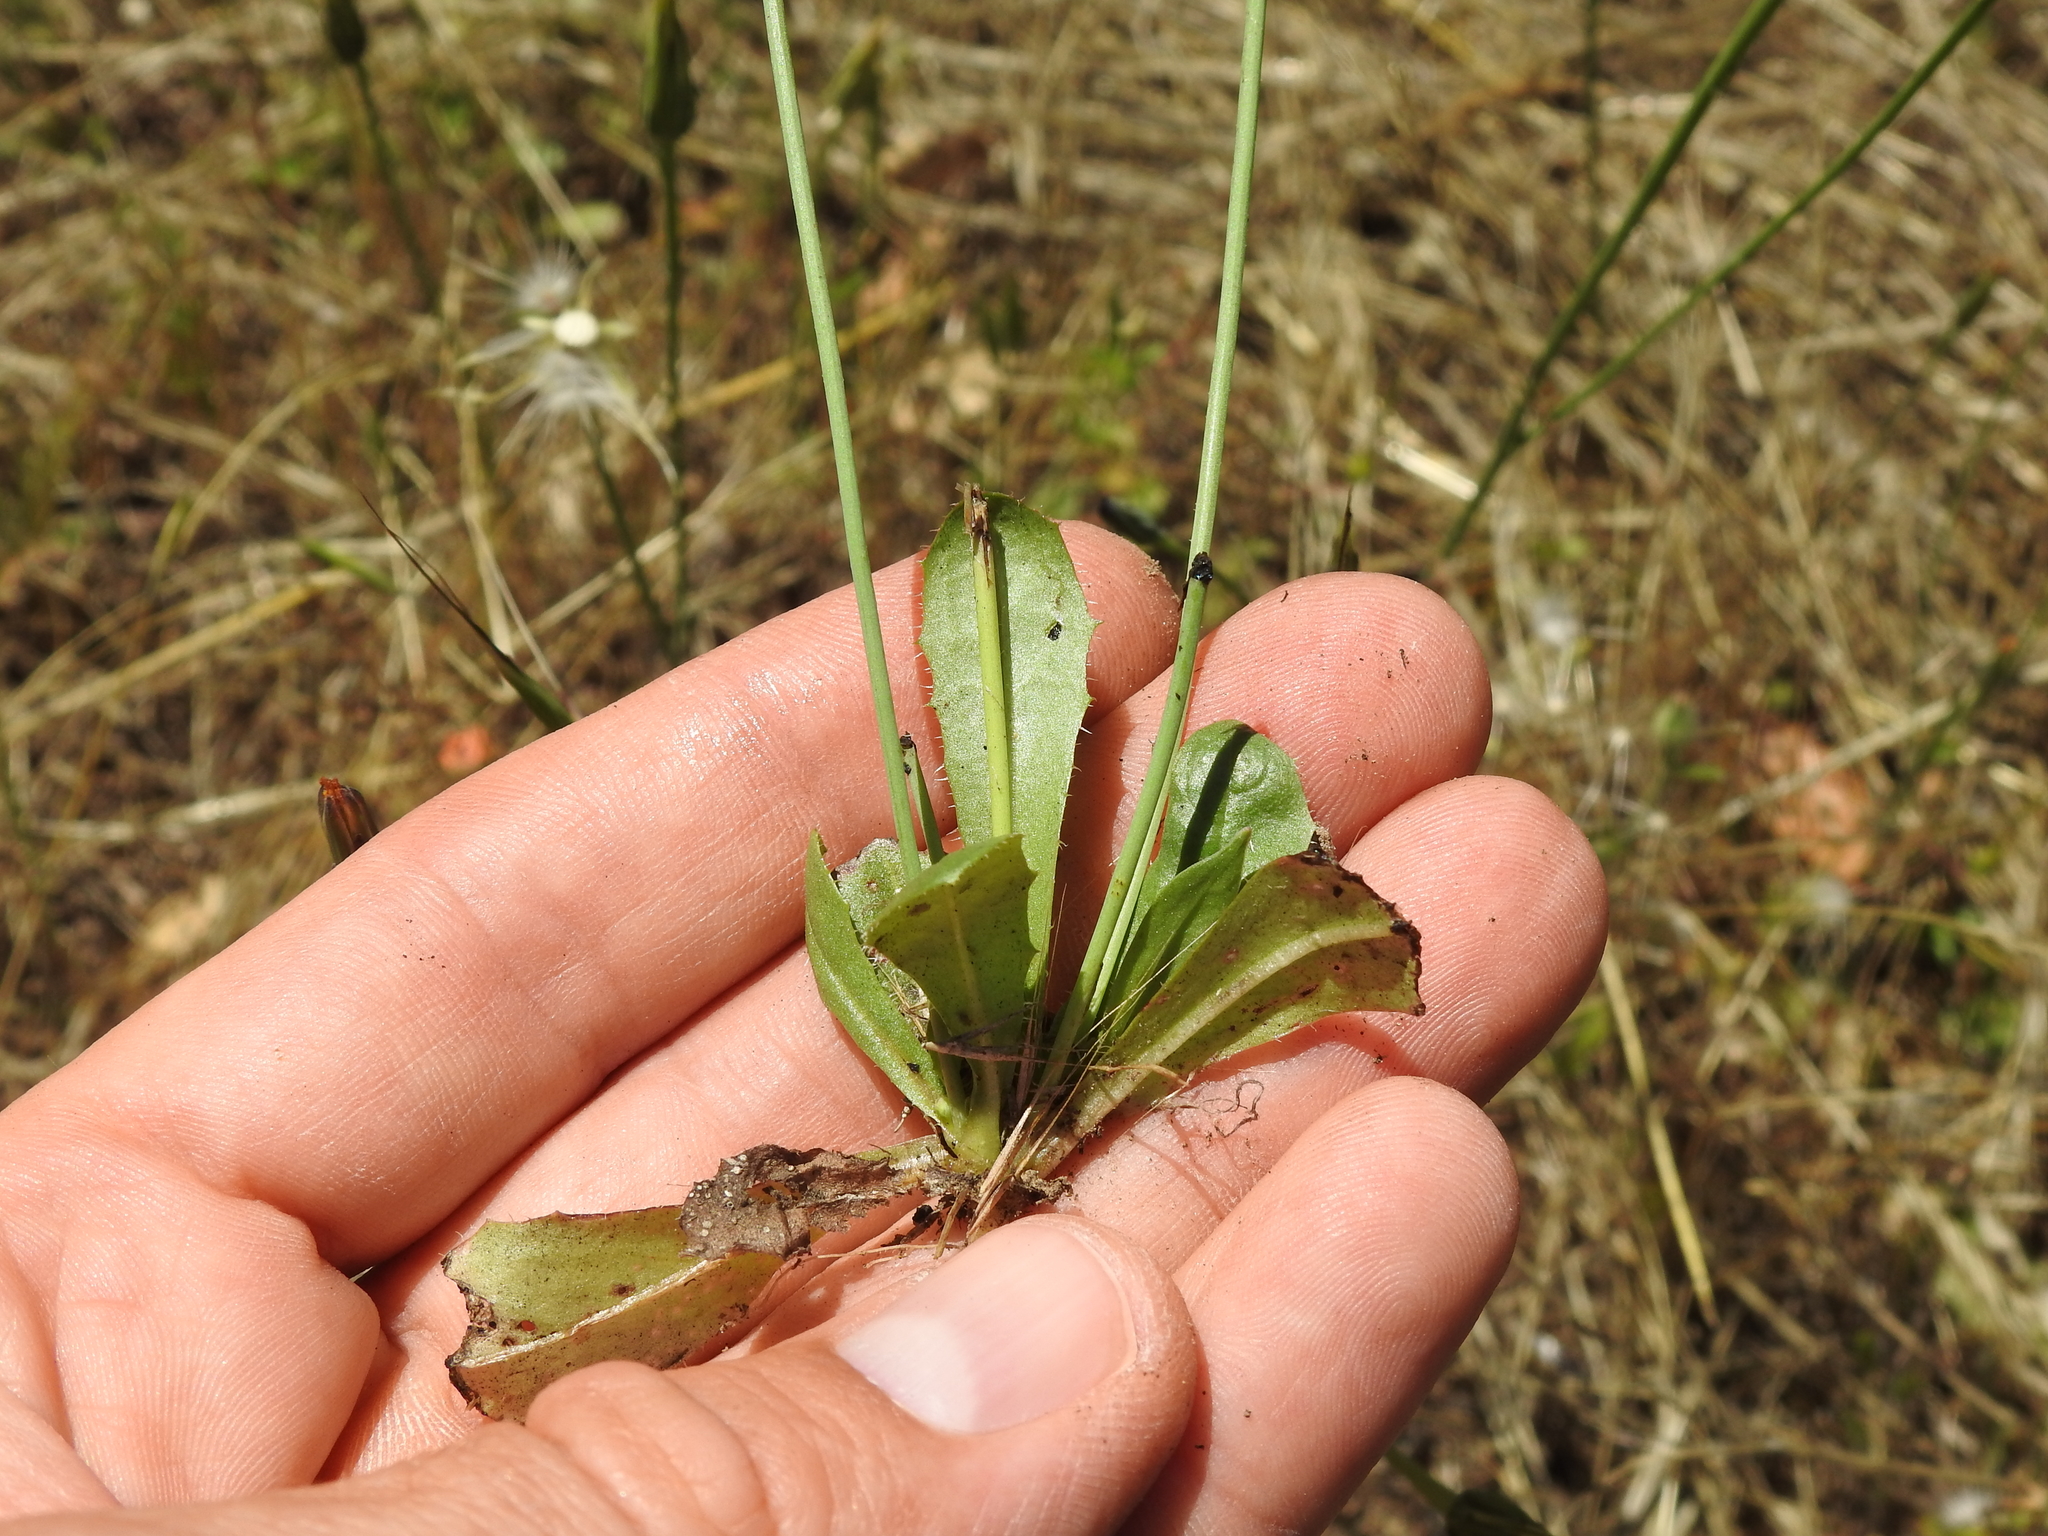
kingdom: Plantae
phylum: Tracheophyta
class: Magnoliopsida
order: Asterales
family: Asteraceae
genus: Hypochaeris
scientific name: Hypochaeris glabra
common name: Smooth catsear
